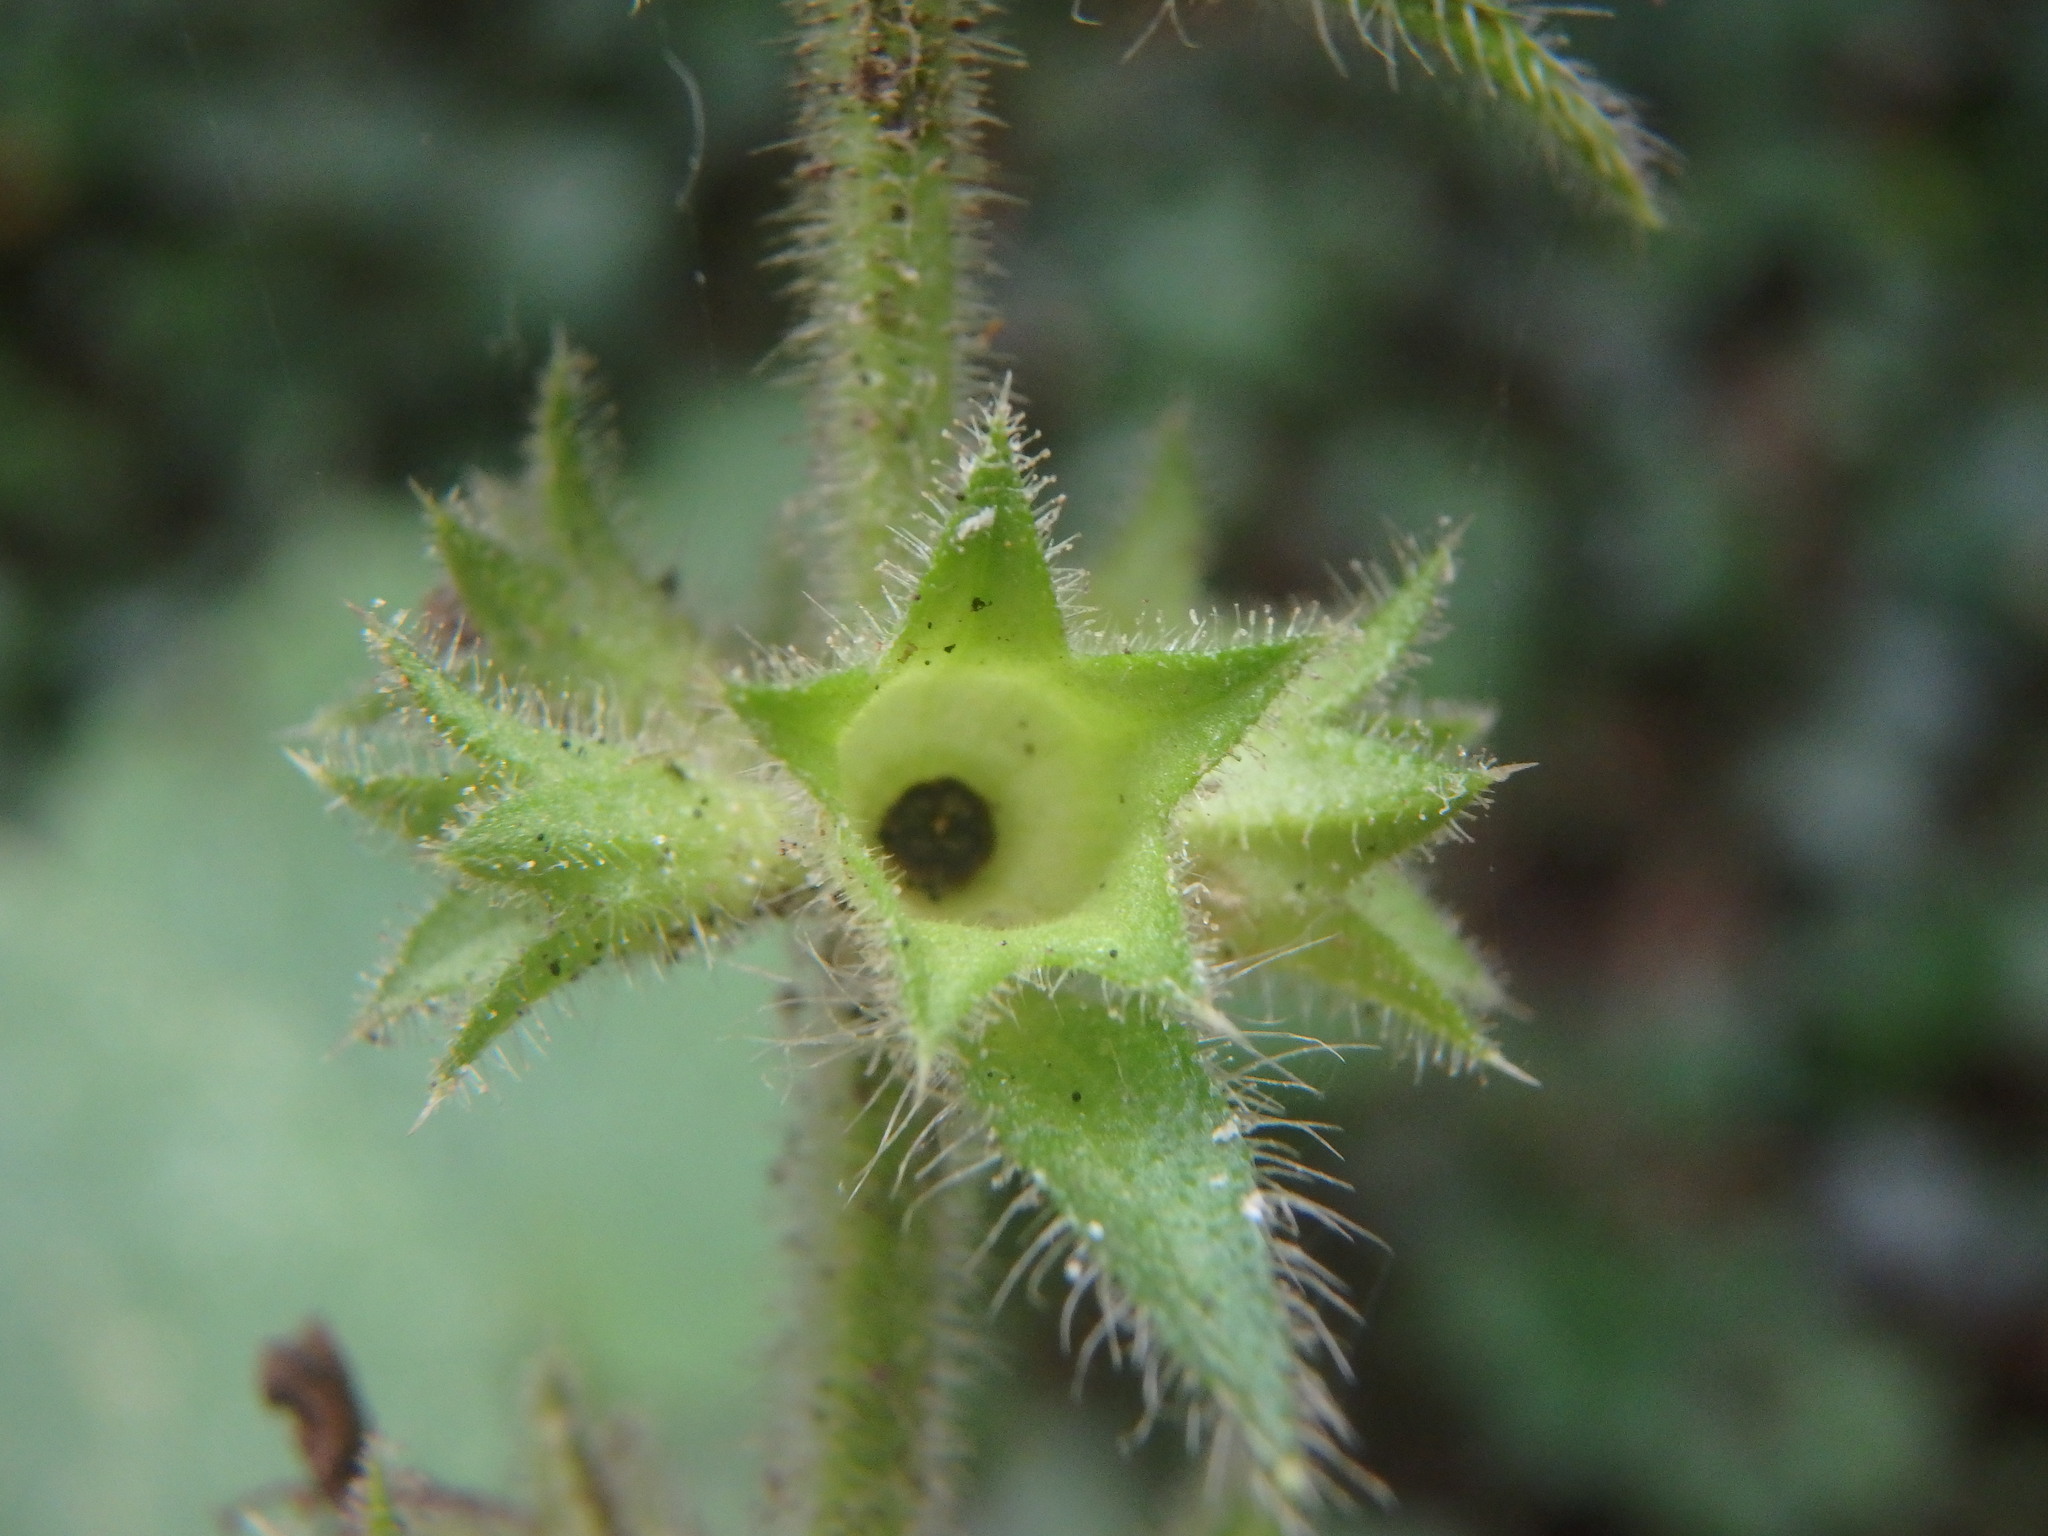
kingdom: Plantae
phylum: Tracheophyta
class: Magnoliopsida
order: Lamiales
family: Lamiaceae
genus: Stachys
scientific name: Stachys sylvatica
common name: Hedge woundwort
